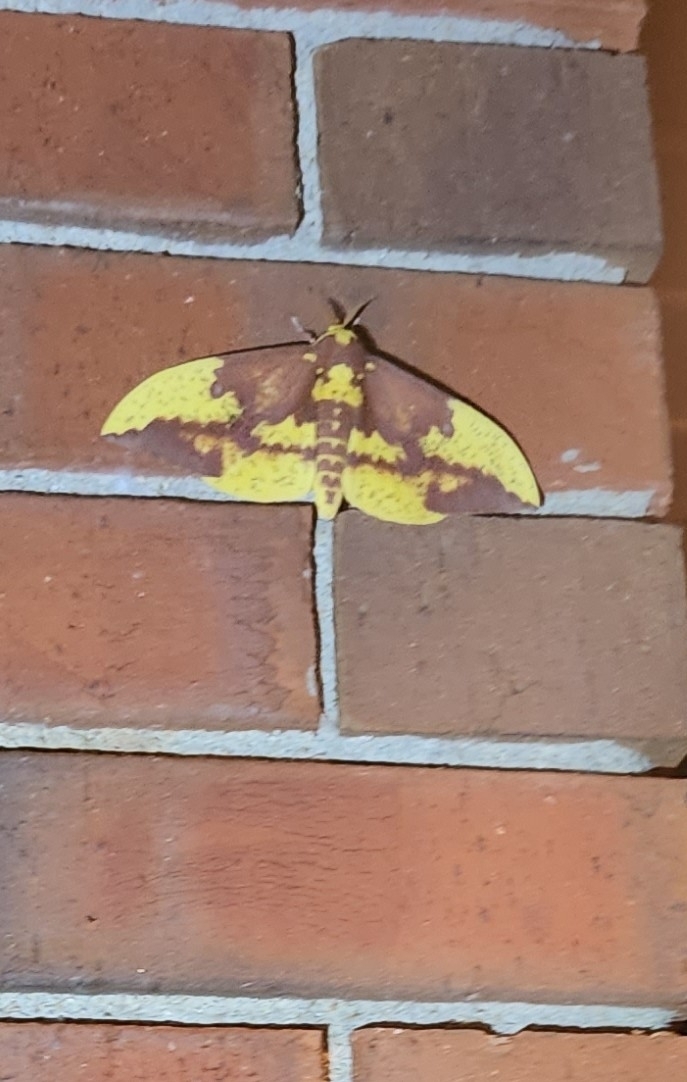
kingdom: Animalia
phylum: Arthropoda
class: Insecta
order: Lepidoptera
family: Saturniidae
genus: Eacles
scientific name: Eacles imperialis
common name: Imperial moth
